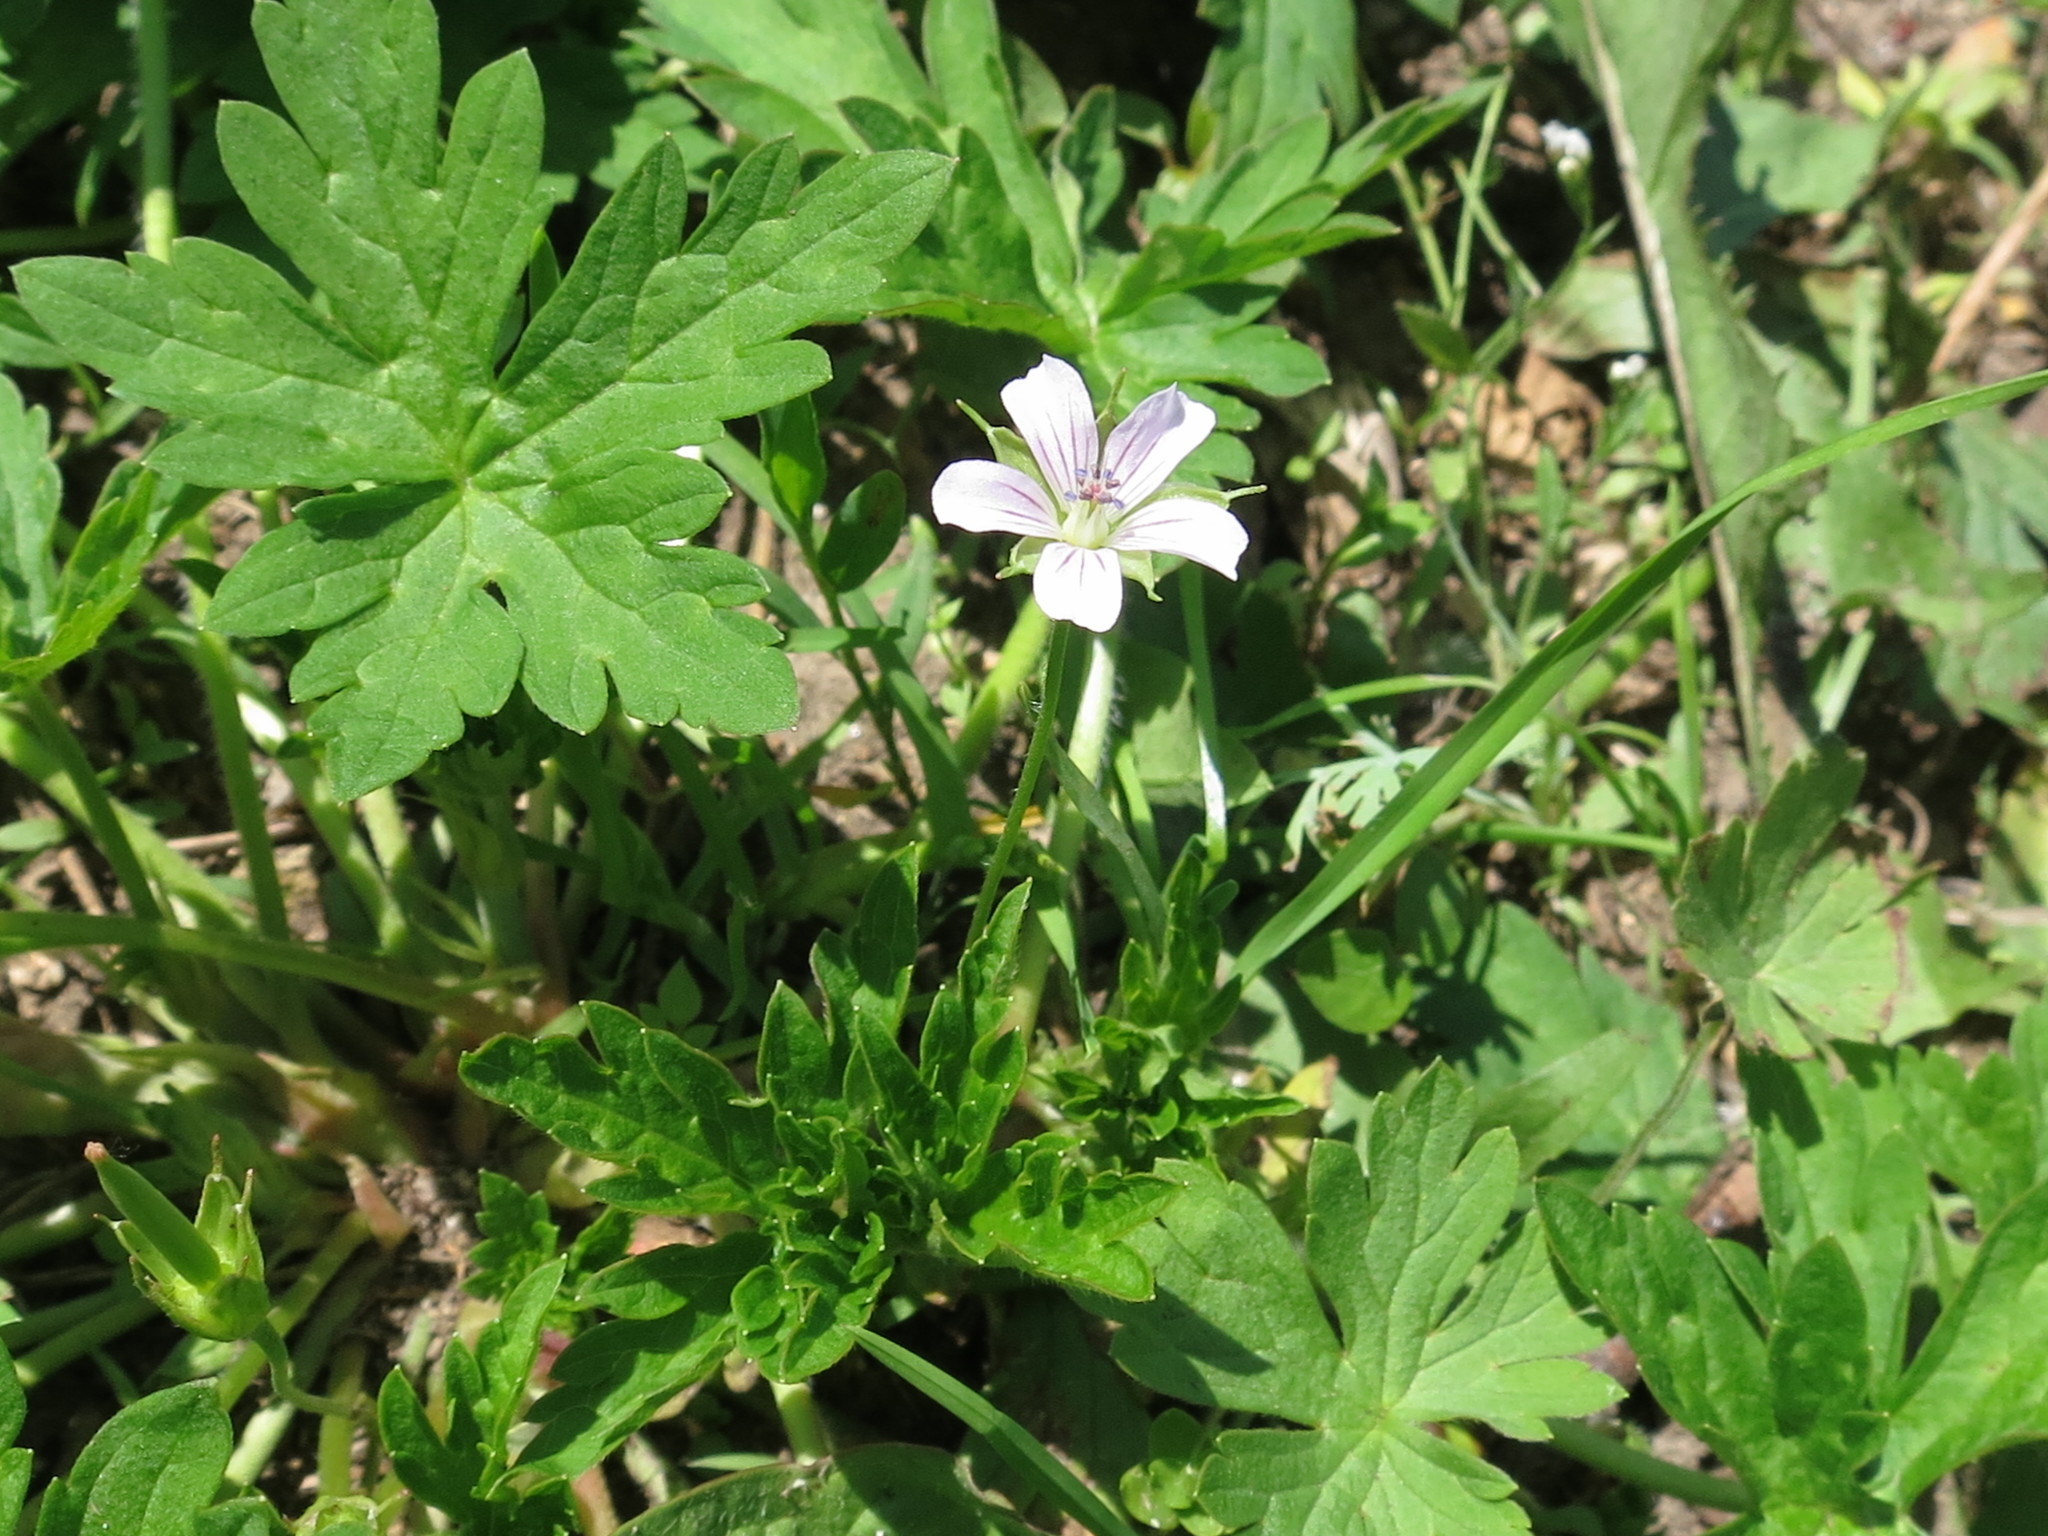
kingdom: Plantae
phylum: Tracheophyta
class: Magnoliopsida
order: Geraniales
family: Geraniaceae
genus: Geranium
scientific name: Geranium sibiricum
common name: Siberian crane's-bill
